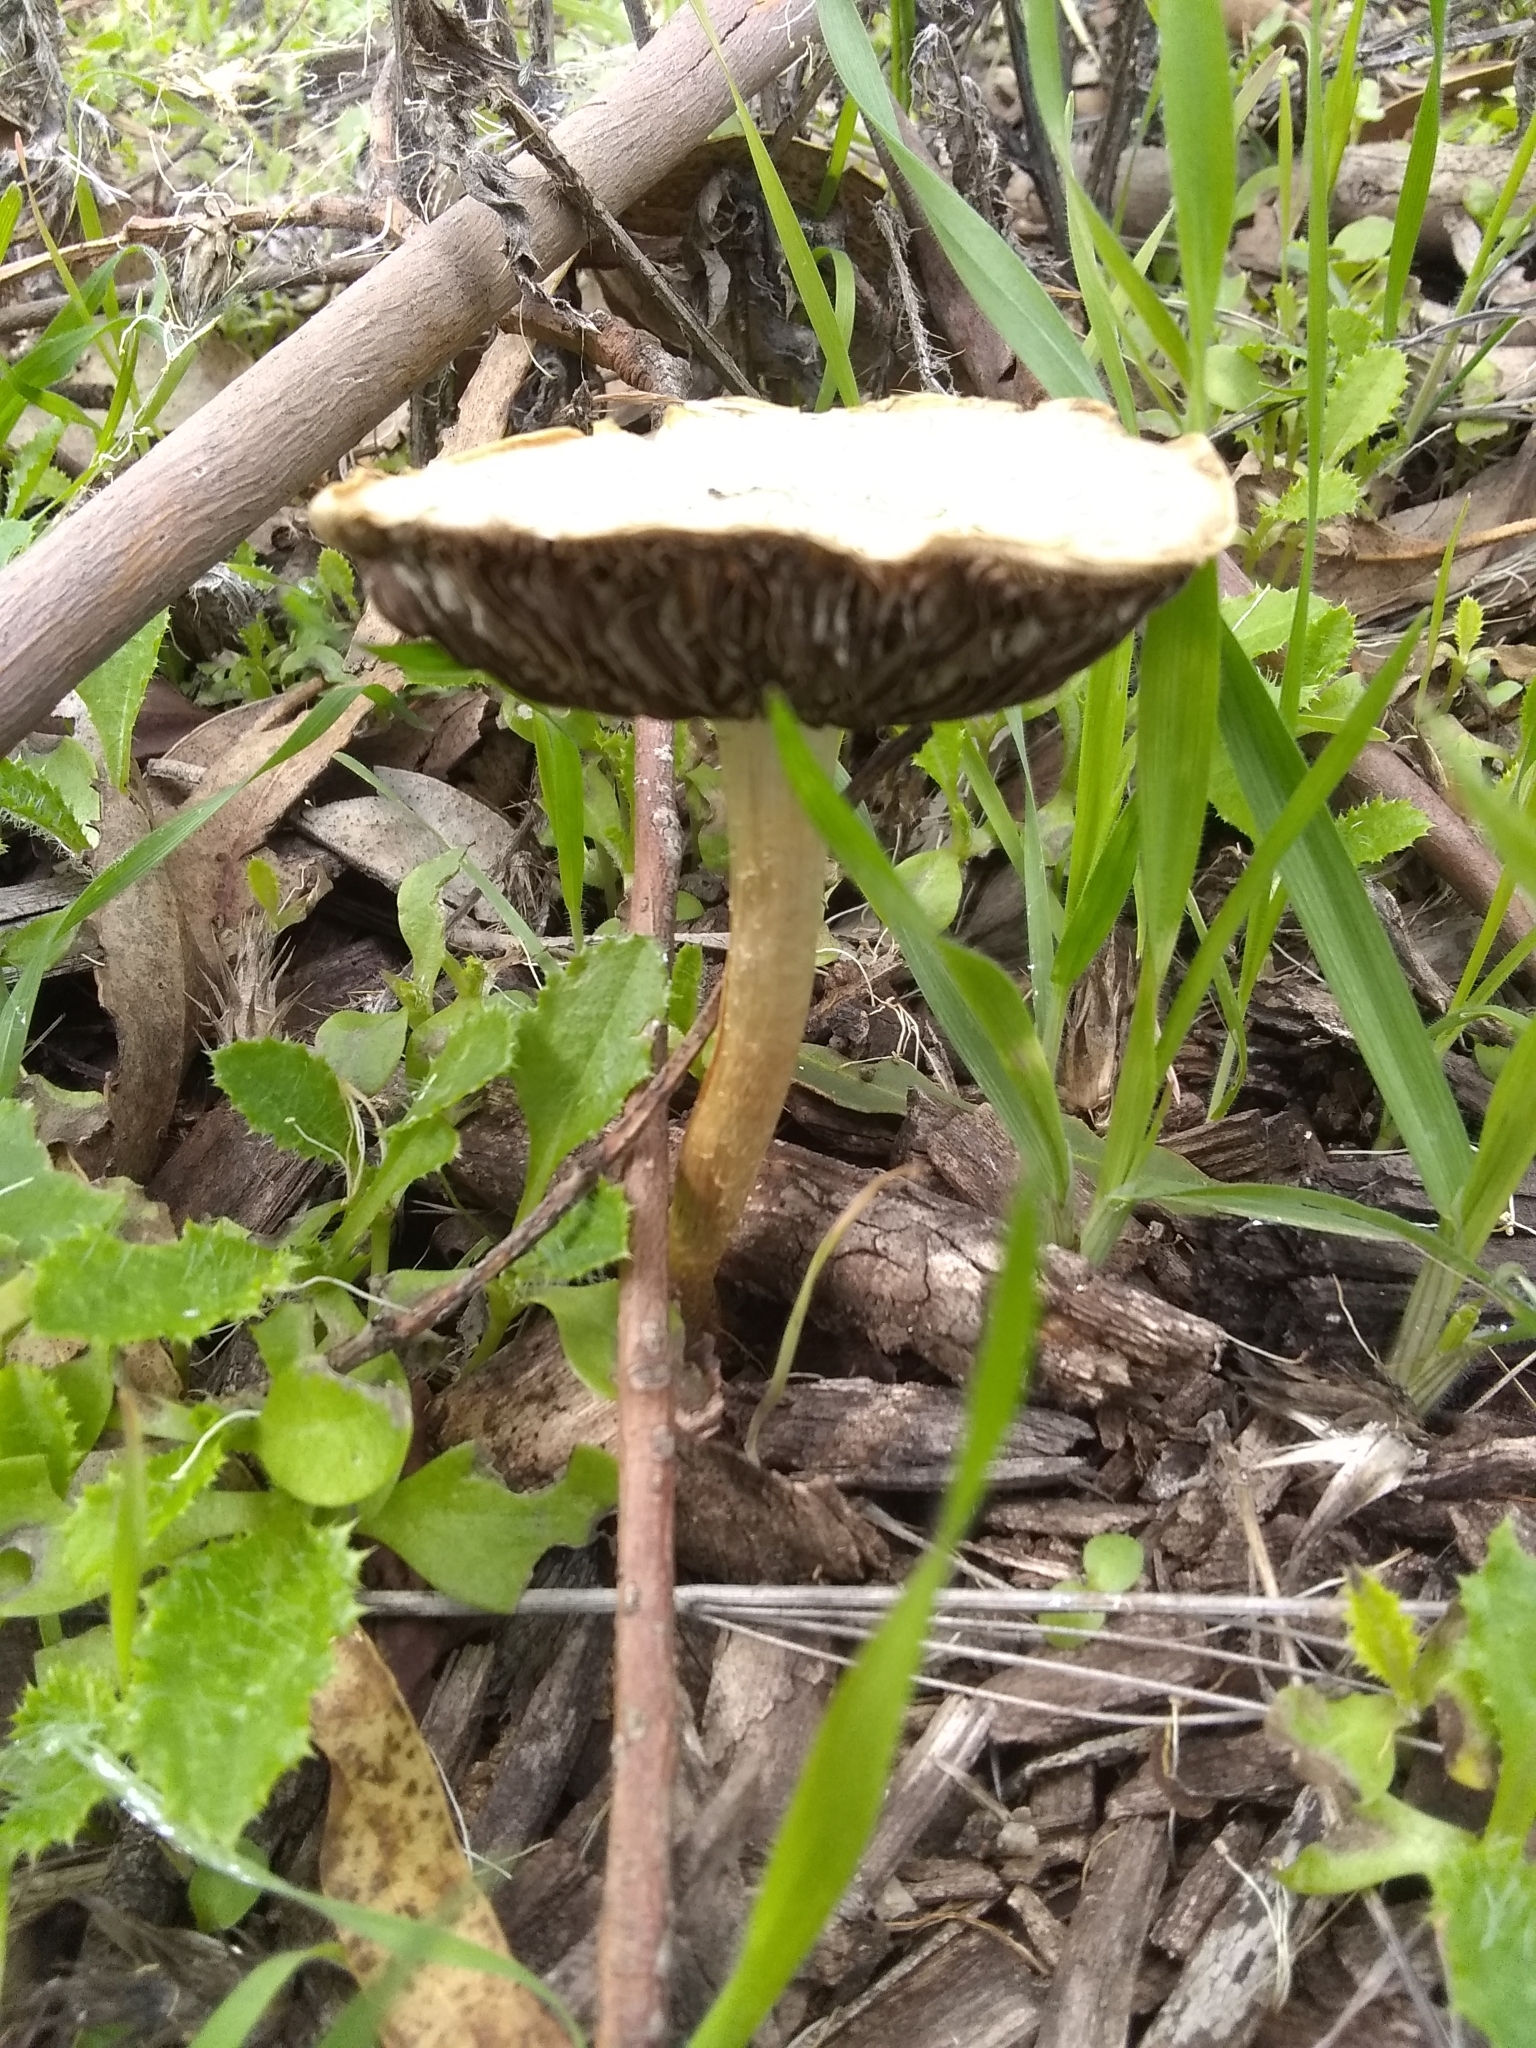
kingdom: Fungi
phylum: Basidiomycota
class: Agaricomycetes
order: Agaricales
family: Strophariaceae
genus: Leratiomyces
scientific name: Leratiomyces percevalii
